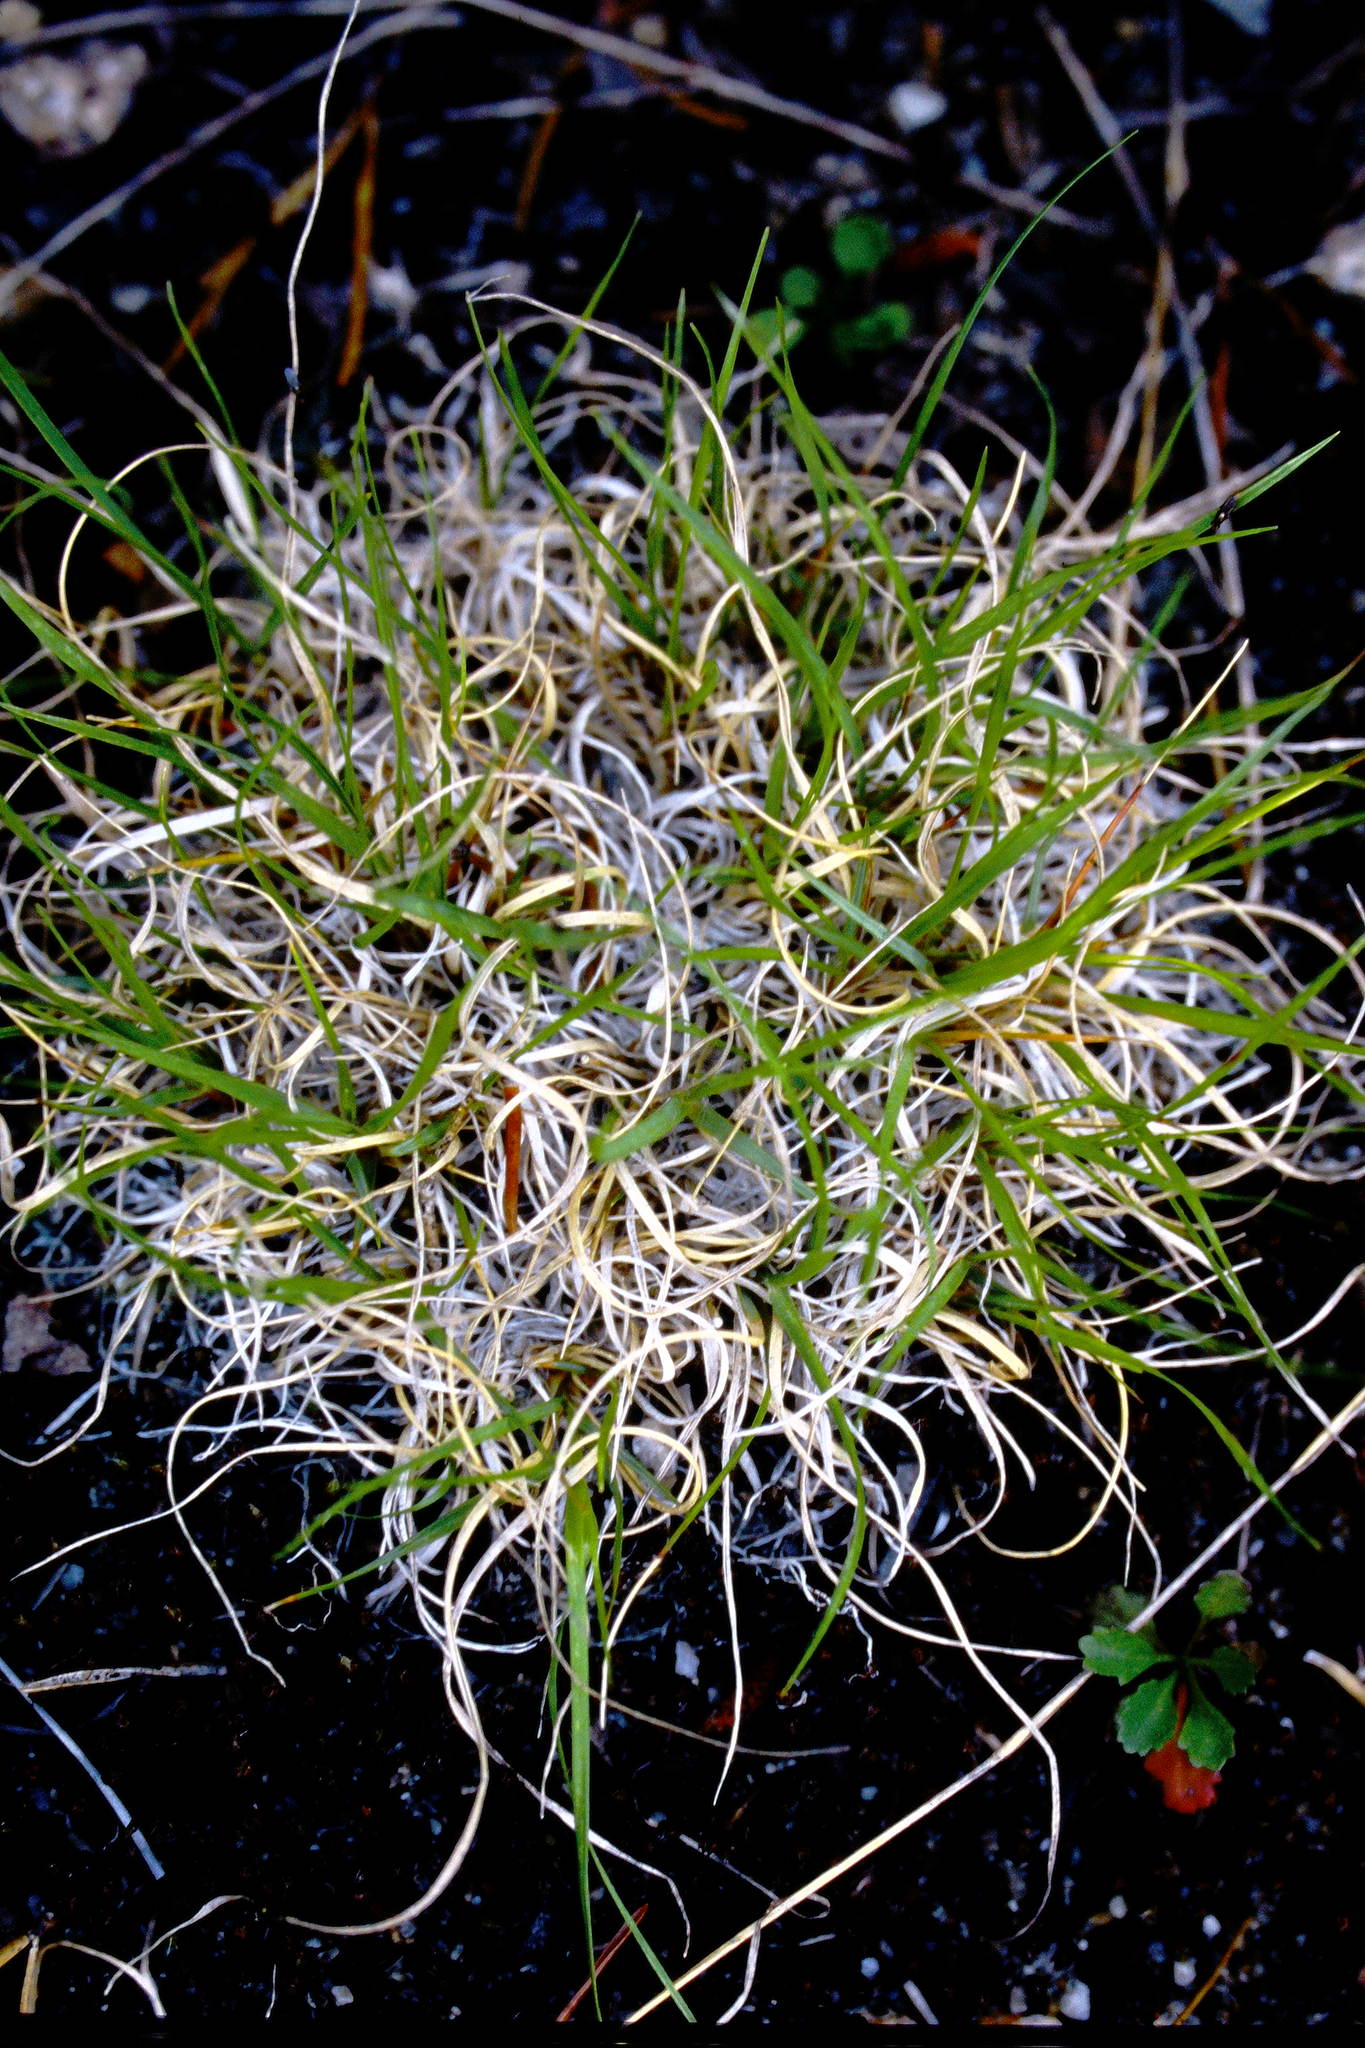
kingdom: Plantae
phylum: Tracheophyta
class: Liliopsida
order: Poales
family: Poaceae
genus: Danthonia
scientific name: Danthonia spicata
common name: Common wild oatgrass
